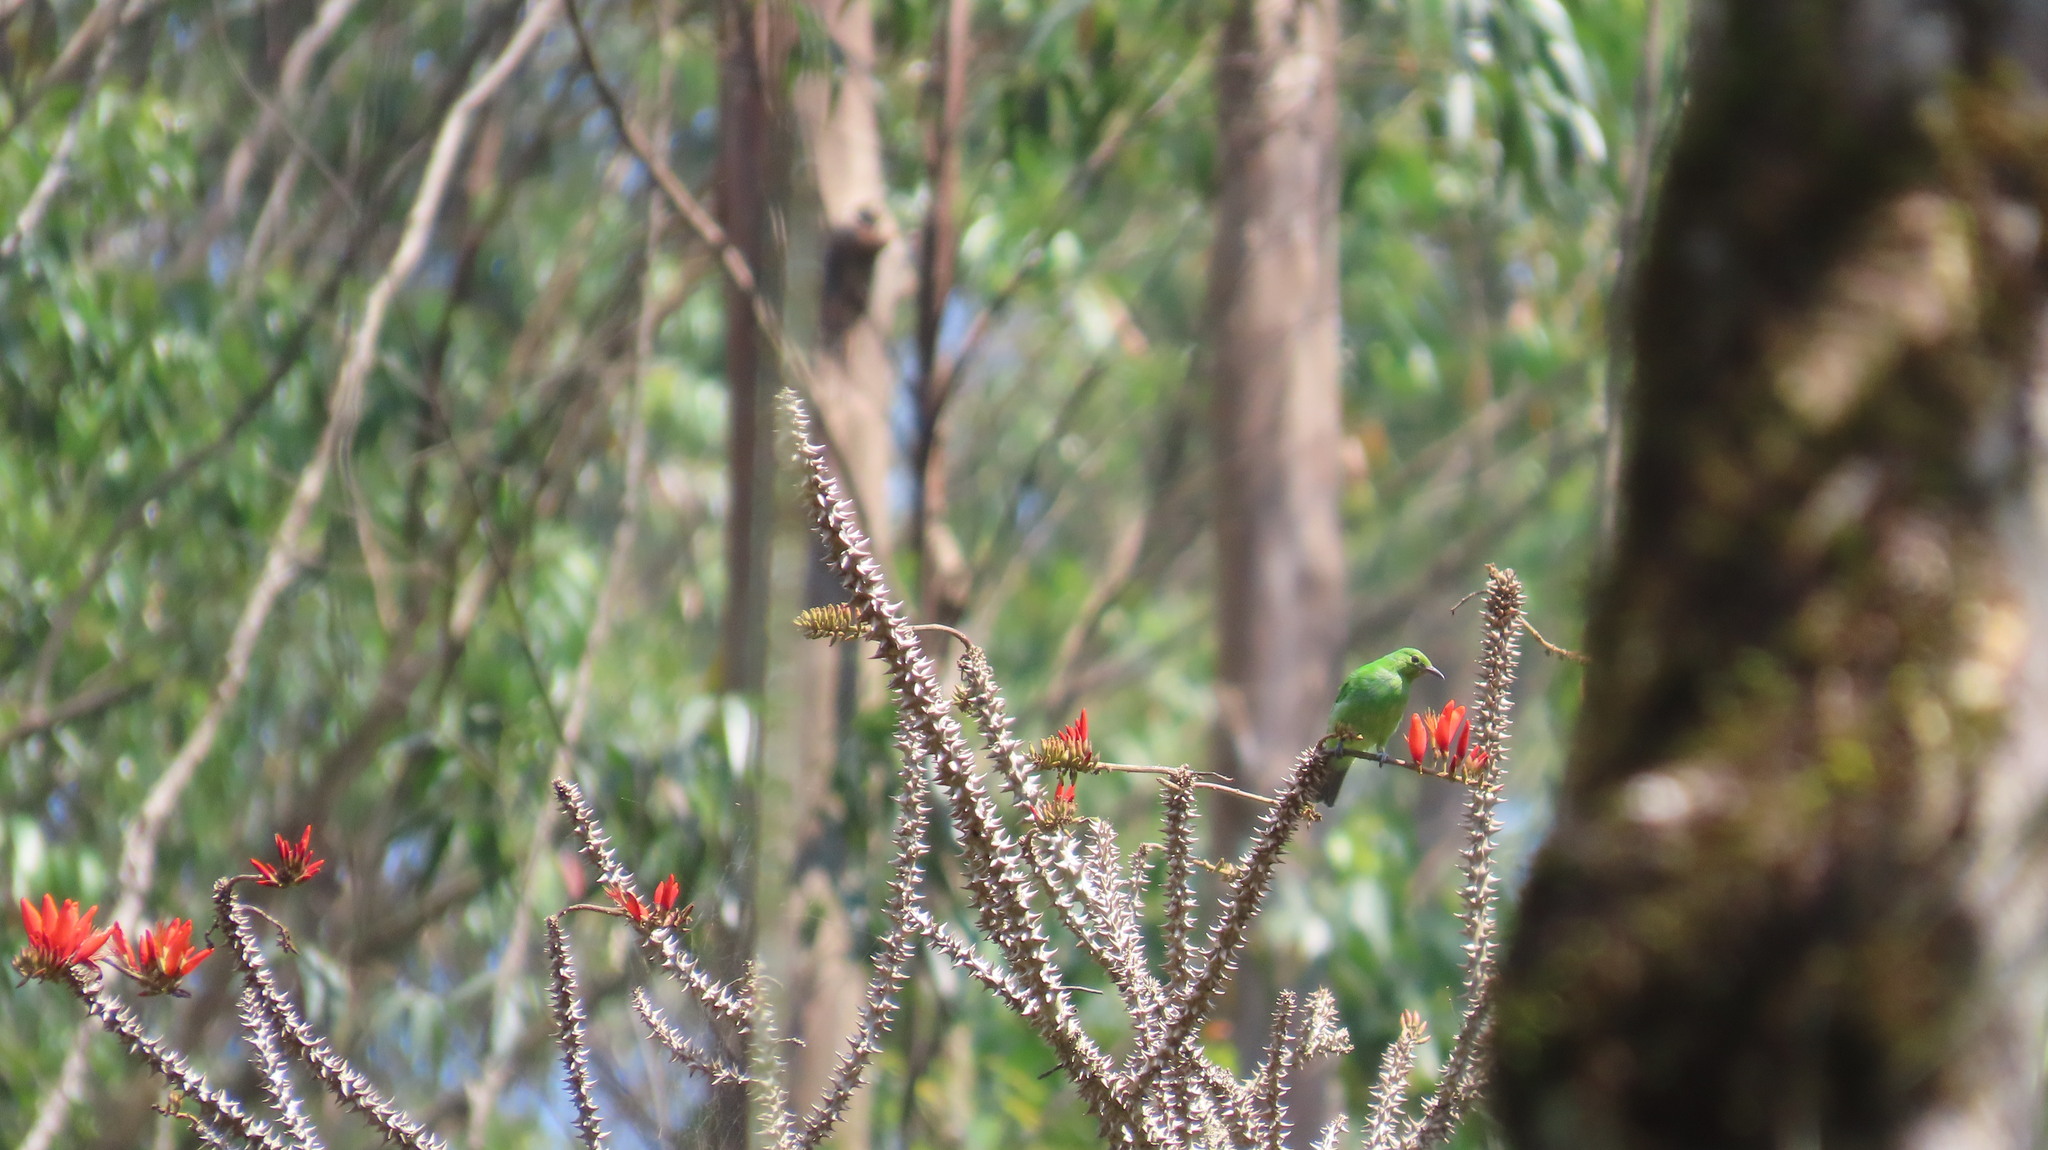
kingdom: Animalia
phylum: Chordata
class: Aves
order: Passeriformes
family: Chloropseidae
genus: Chloropsis
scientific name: Chloropsis aurifrons
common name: Golden-fronted leafbird
